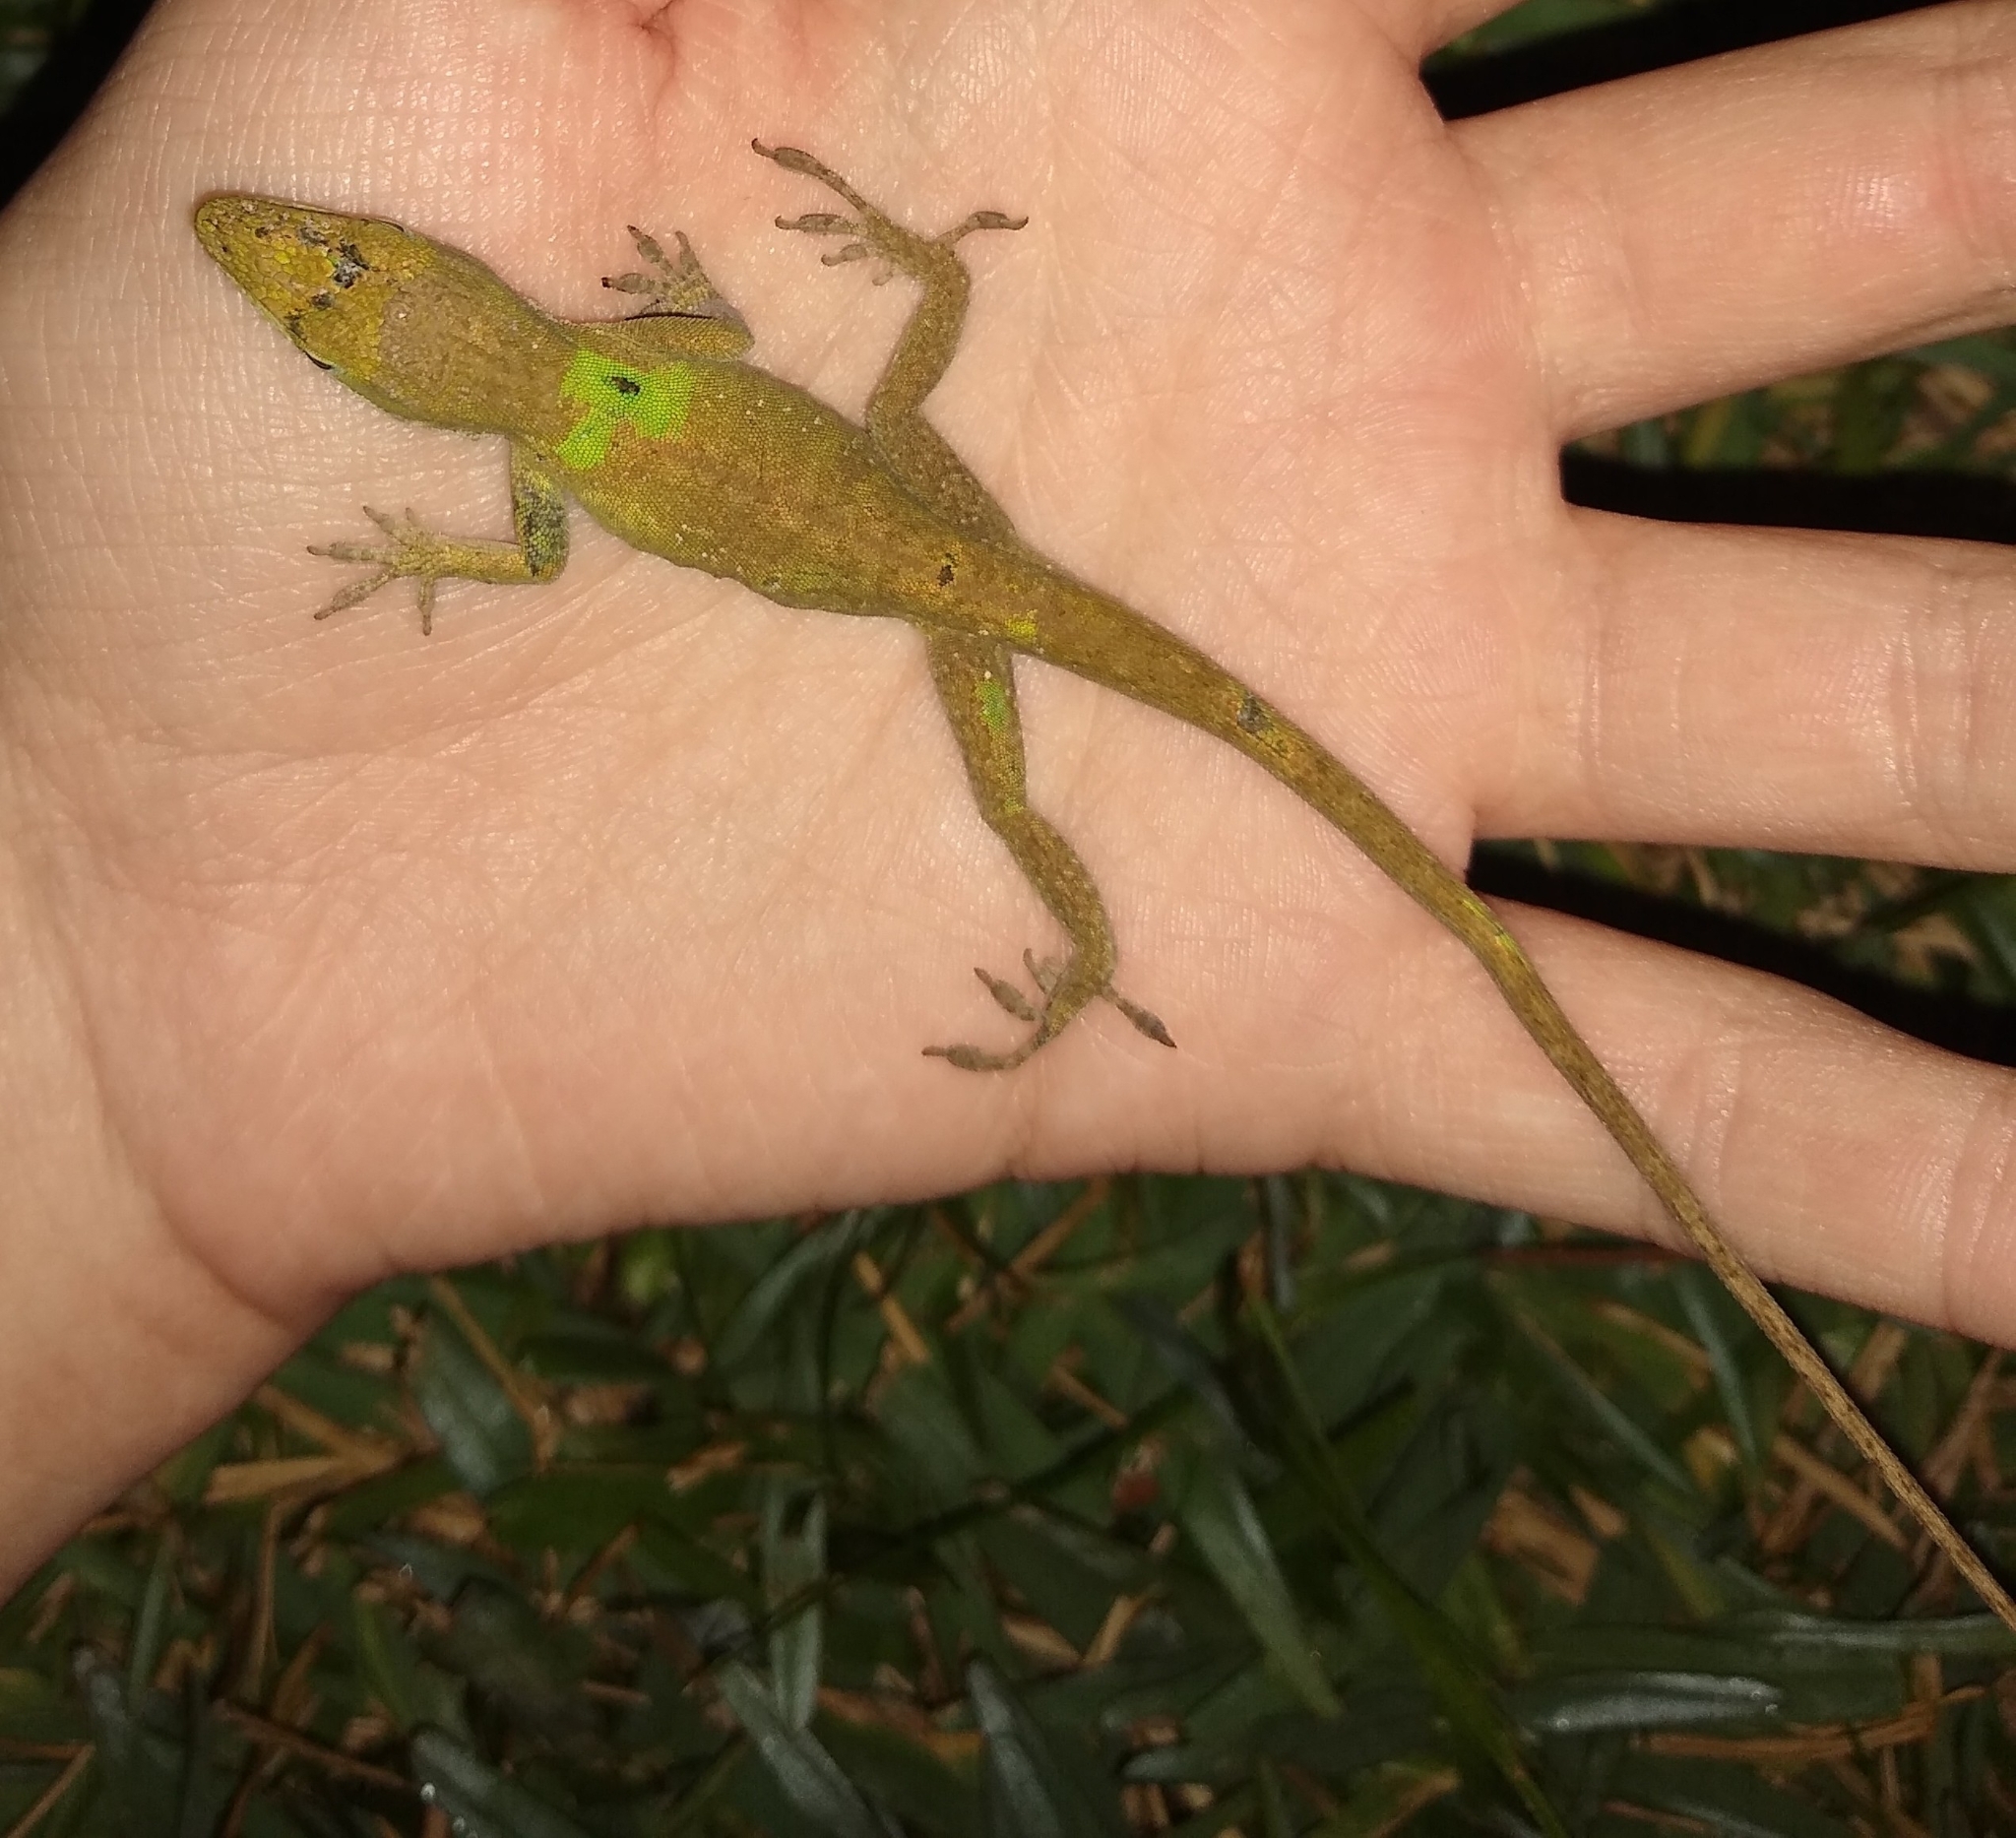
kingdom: Animalia
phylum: Chordata
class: Squamata
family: Dactyloidae
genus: Anolis
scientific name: Anolis carolinensis
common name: Green anole
